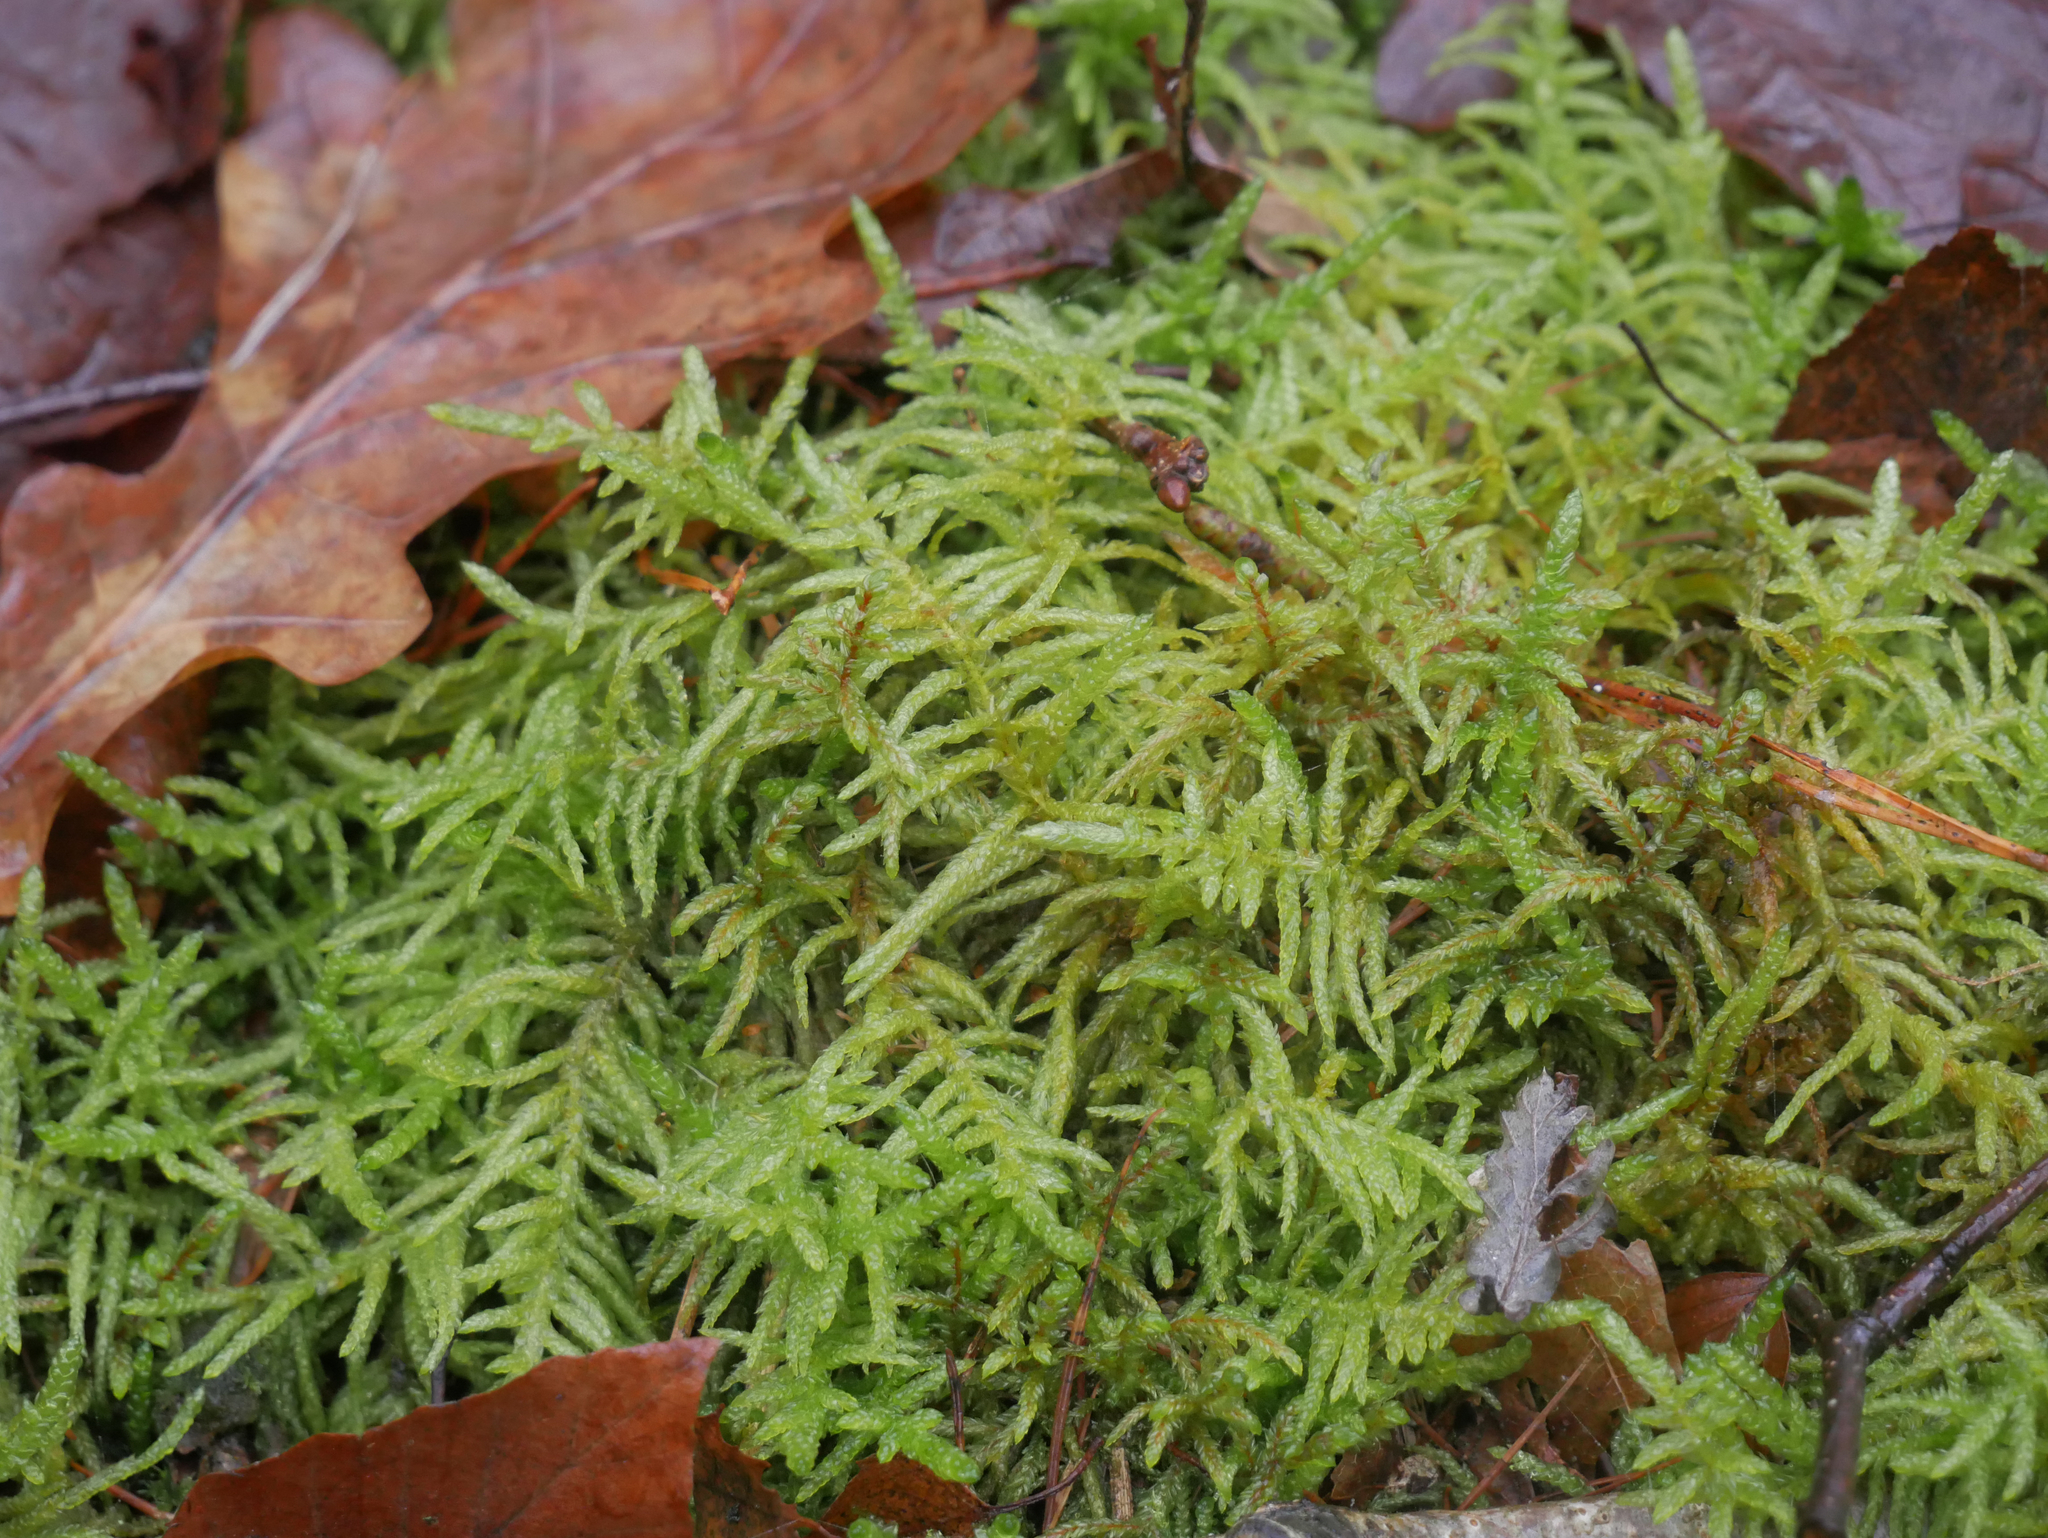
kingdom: Plantae
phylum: Bryophyta
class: Bryopsida
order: Hypnales
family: Brachytheciaceae
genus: Pseudoscleropodium
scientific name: Pseudoscleropodium purum
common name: Neat feather-moss
